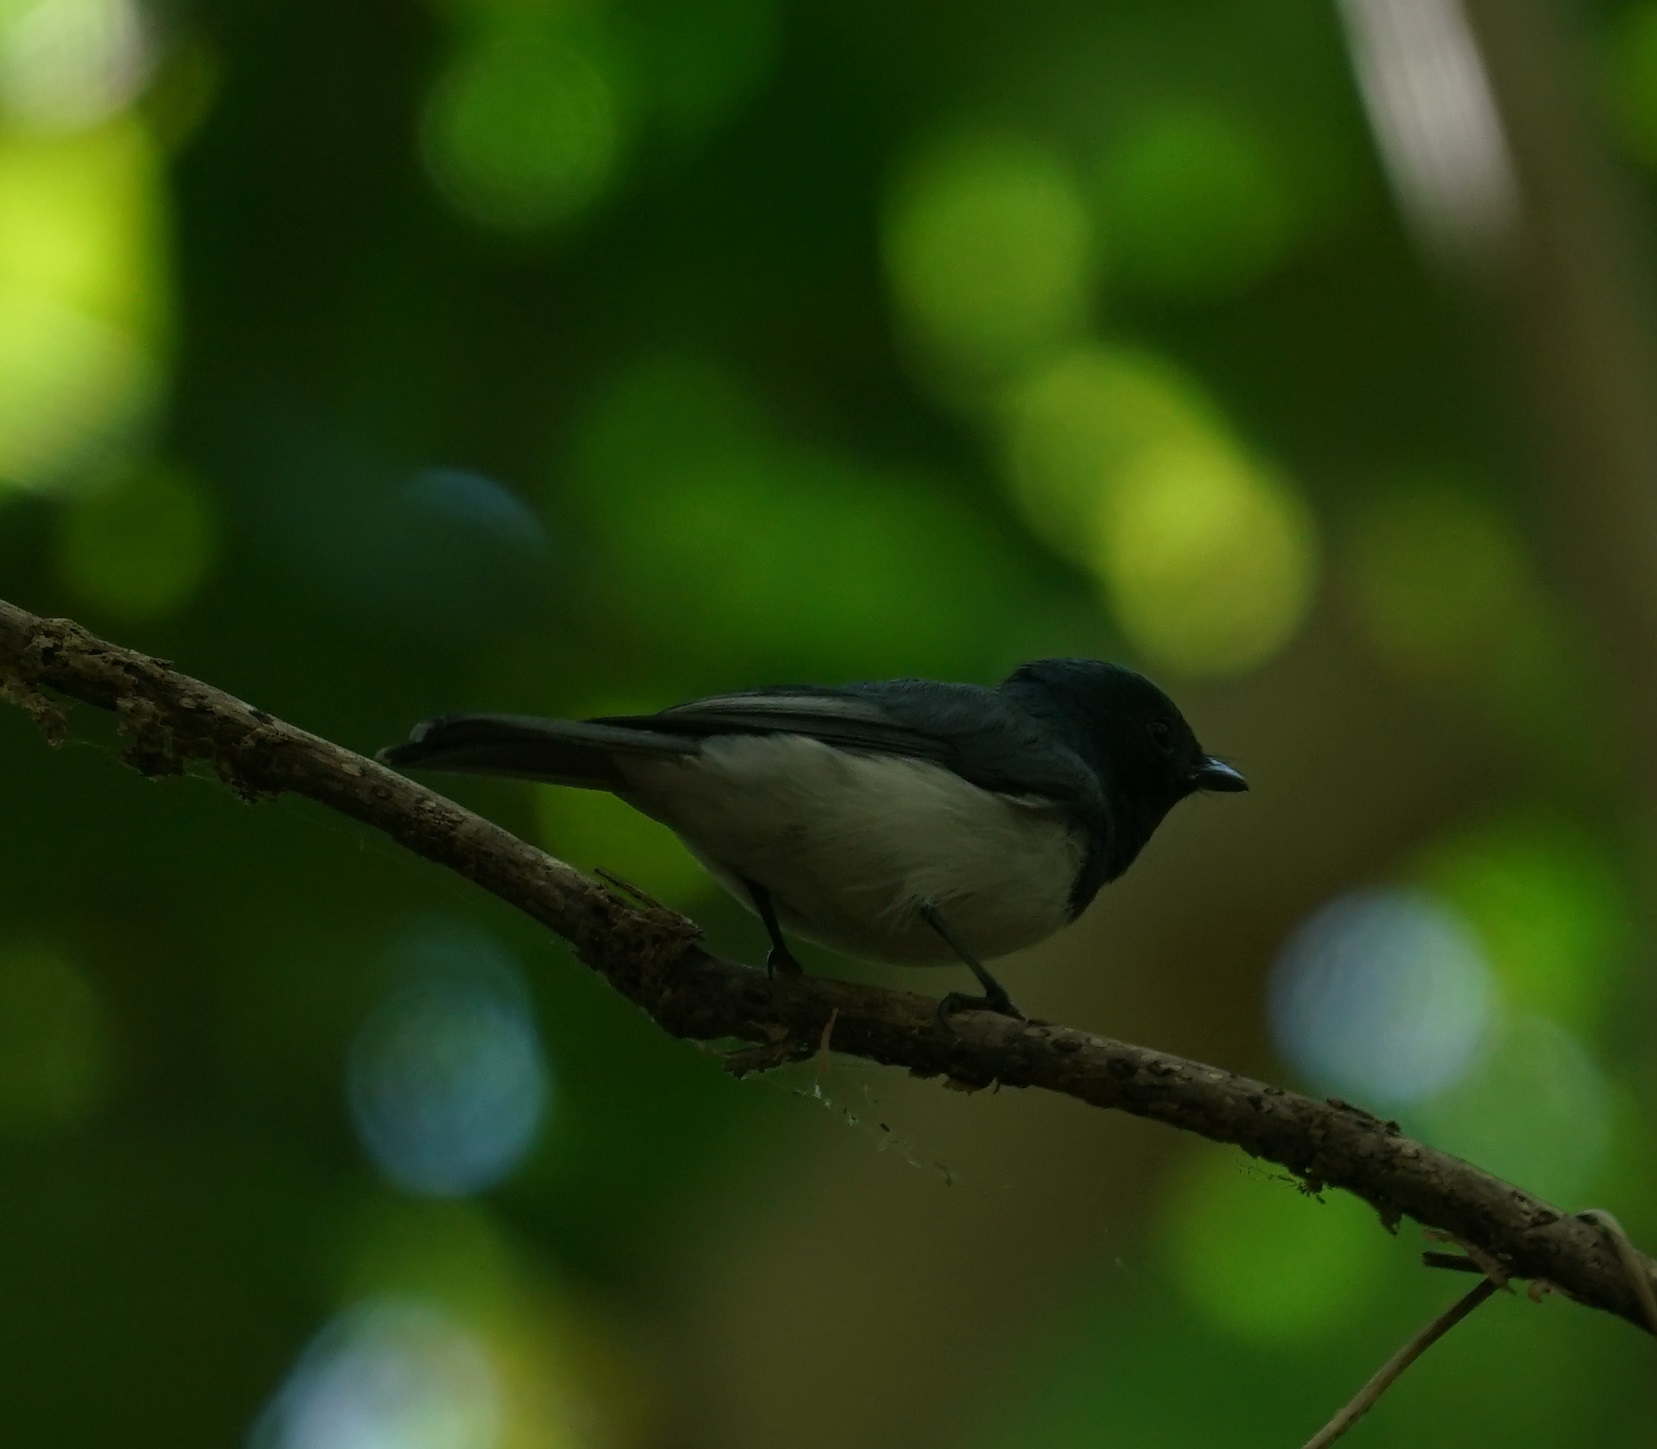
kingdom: Animalia
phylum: Chordata
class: Aves
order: Passeriformes
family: Monarchidae
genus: Myiagra
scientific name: Myiagra rubecula
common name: Leaden flycatcher
